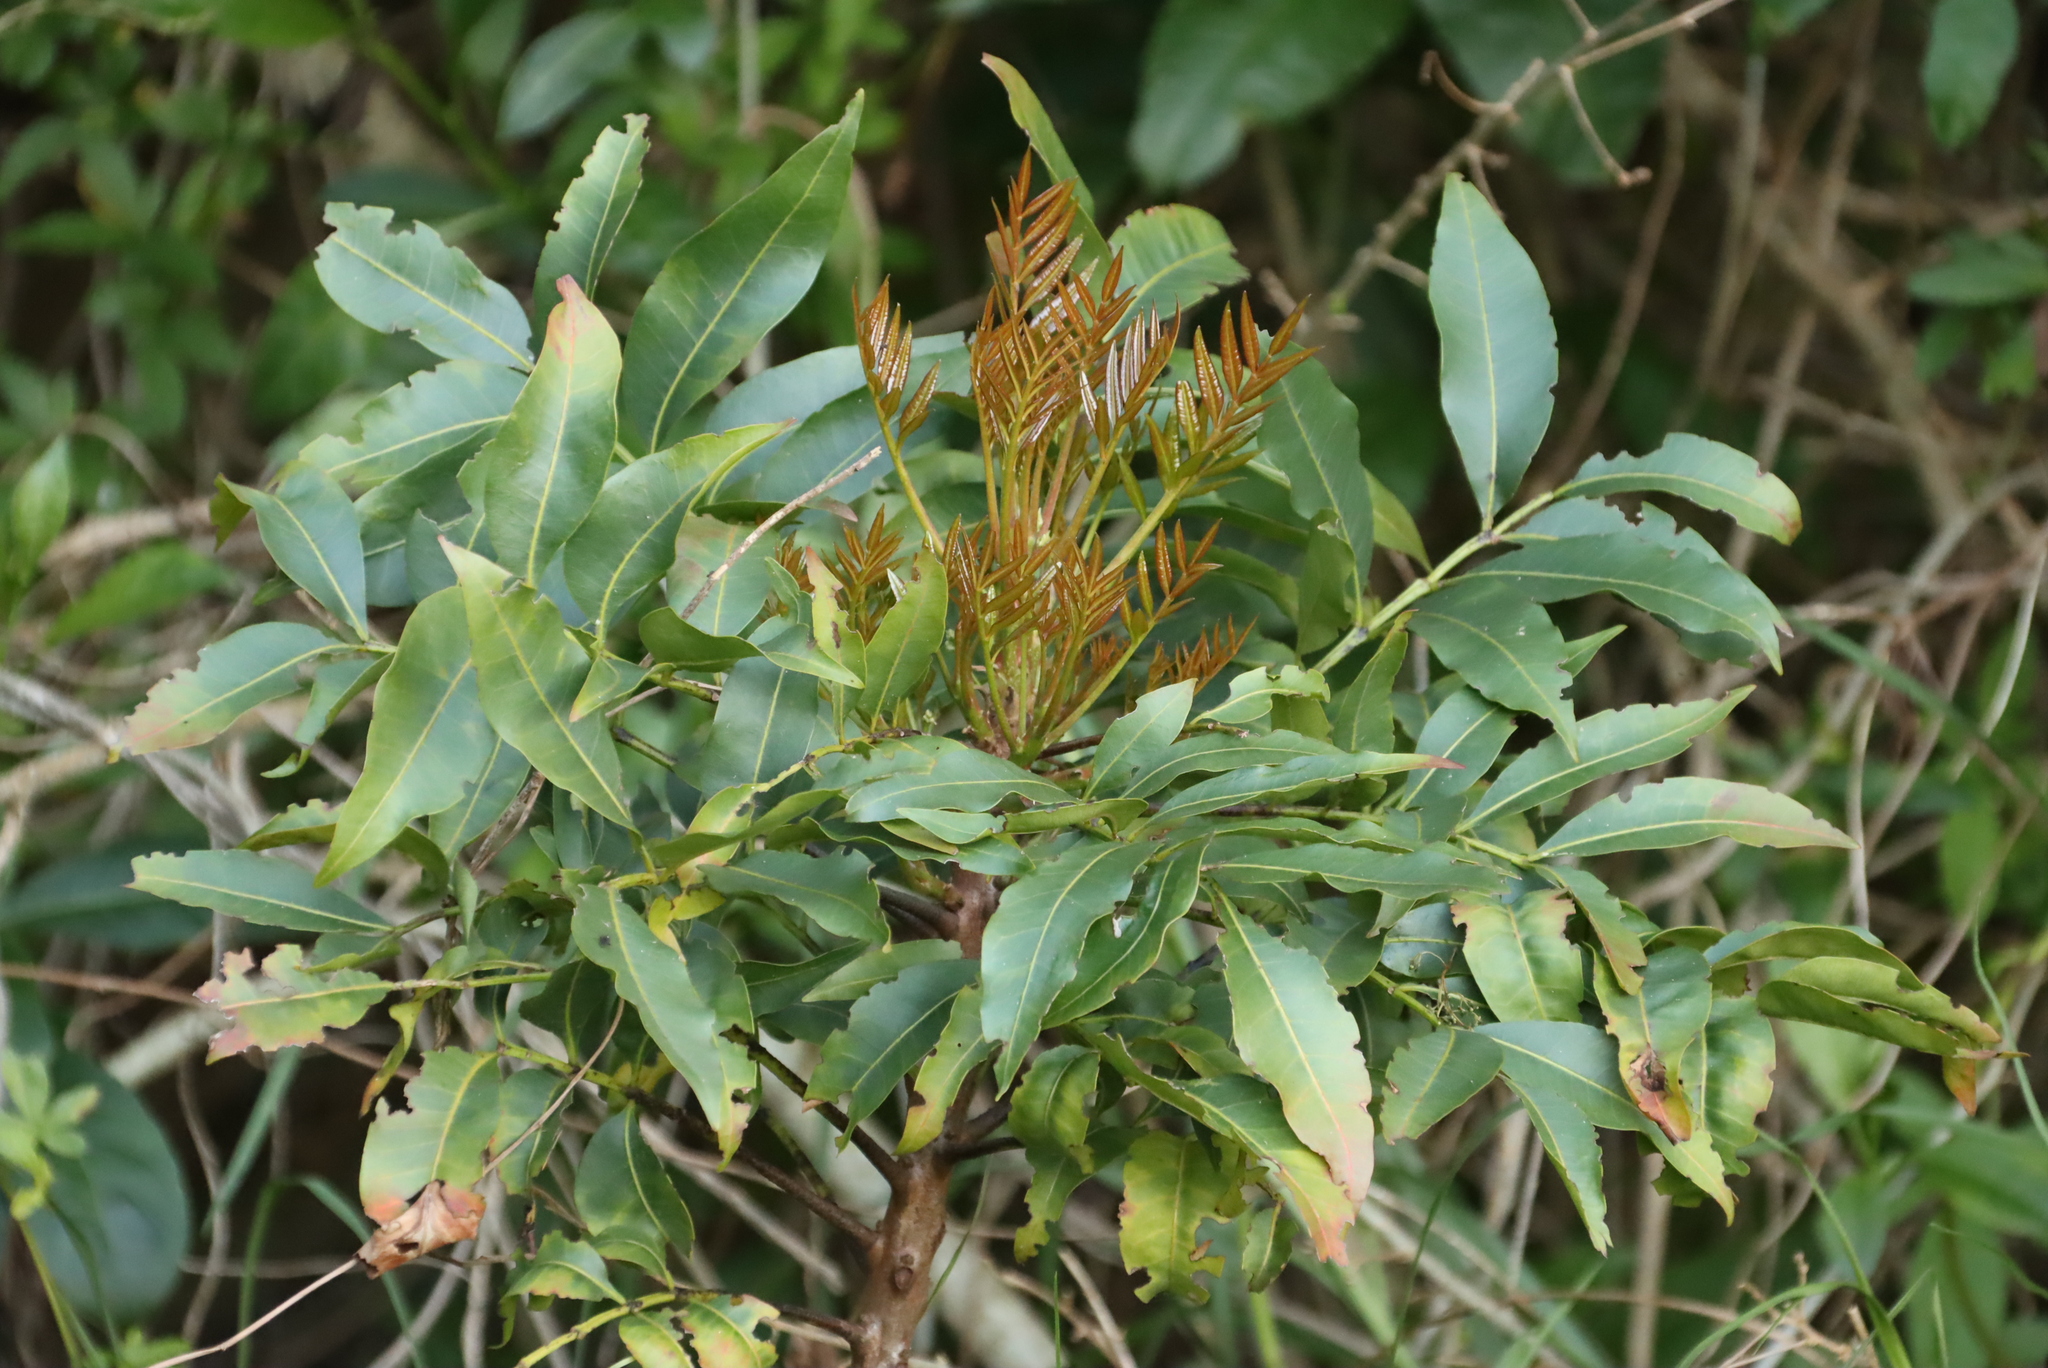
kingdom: Plantae
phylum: Tracheophyta
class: Magnoliopsida
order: Sapindales
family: Meliaceae
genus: Ekebergia
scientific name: Ekebergia capensis
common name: Cape-ash
